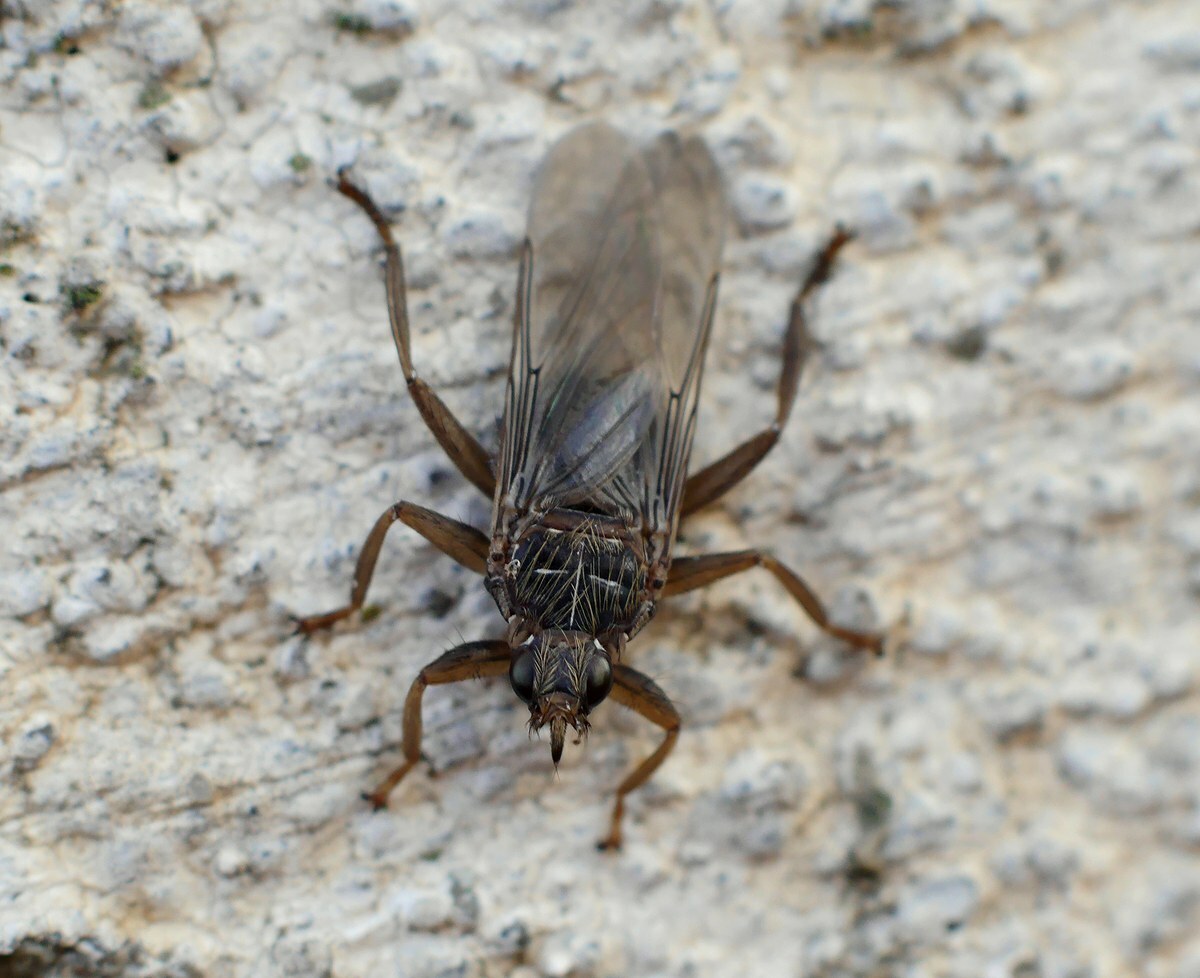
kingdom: Animalia
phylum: Arthropoda
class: Insecta
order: Diptera
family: Hippoboscidae
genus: Pseudolynchia
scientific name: Pseudolynchia canariensis
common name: Louse fly
